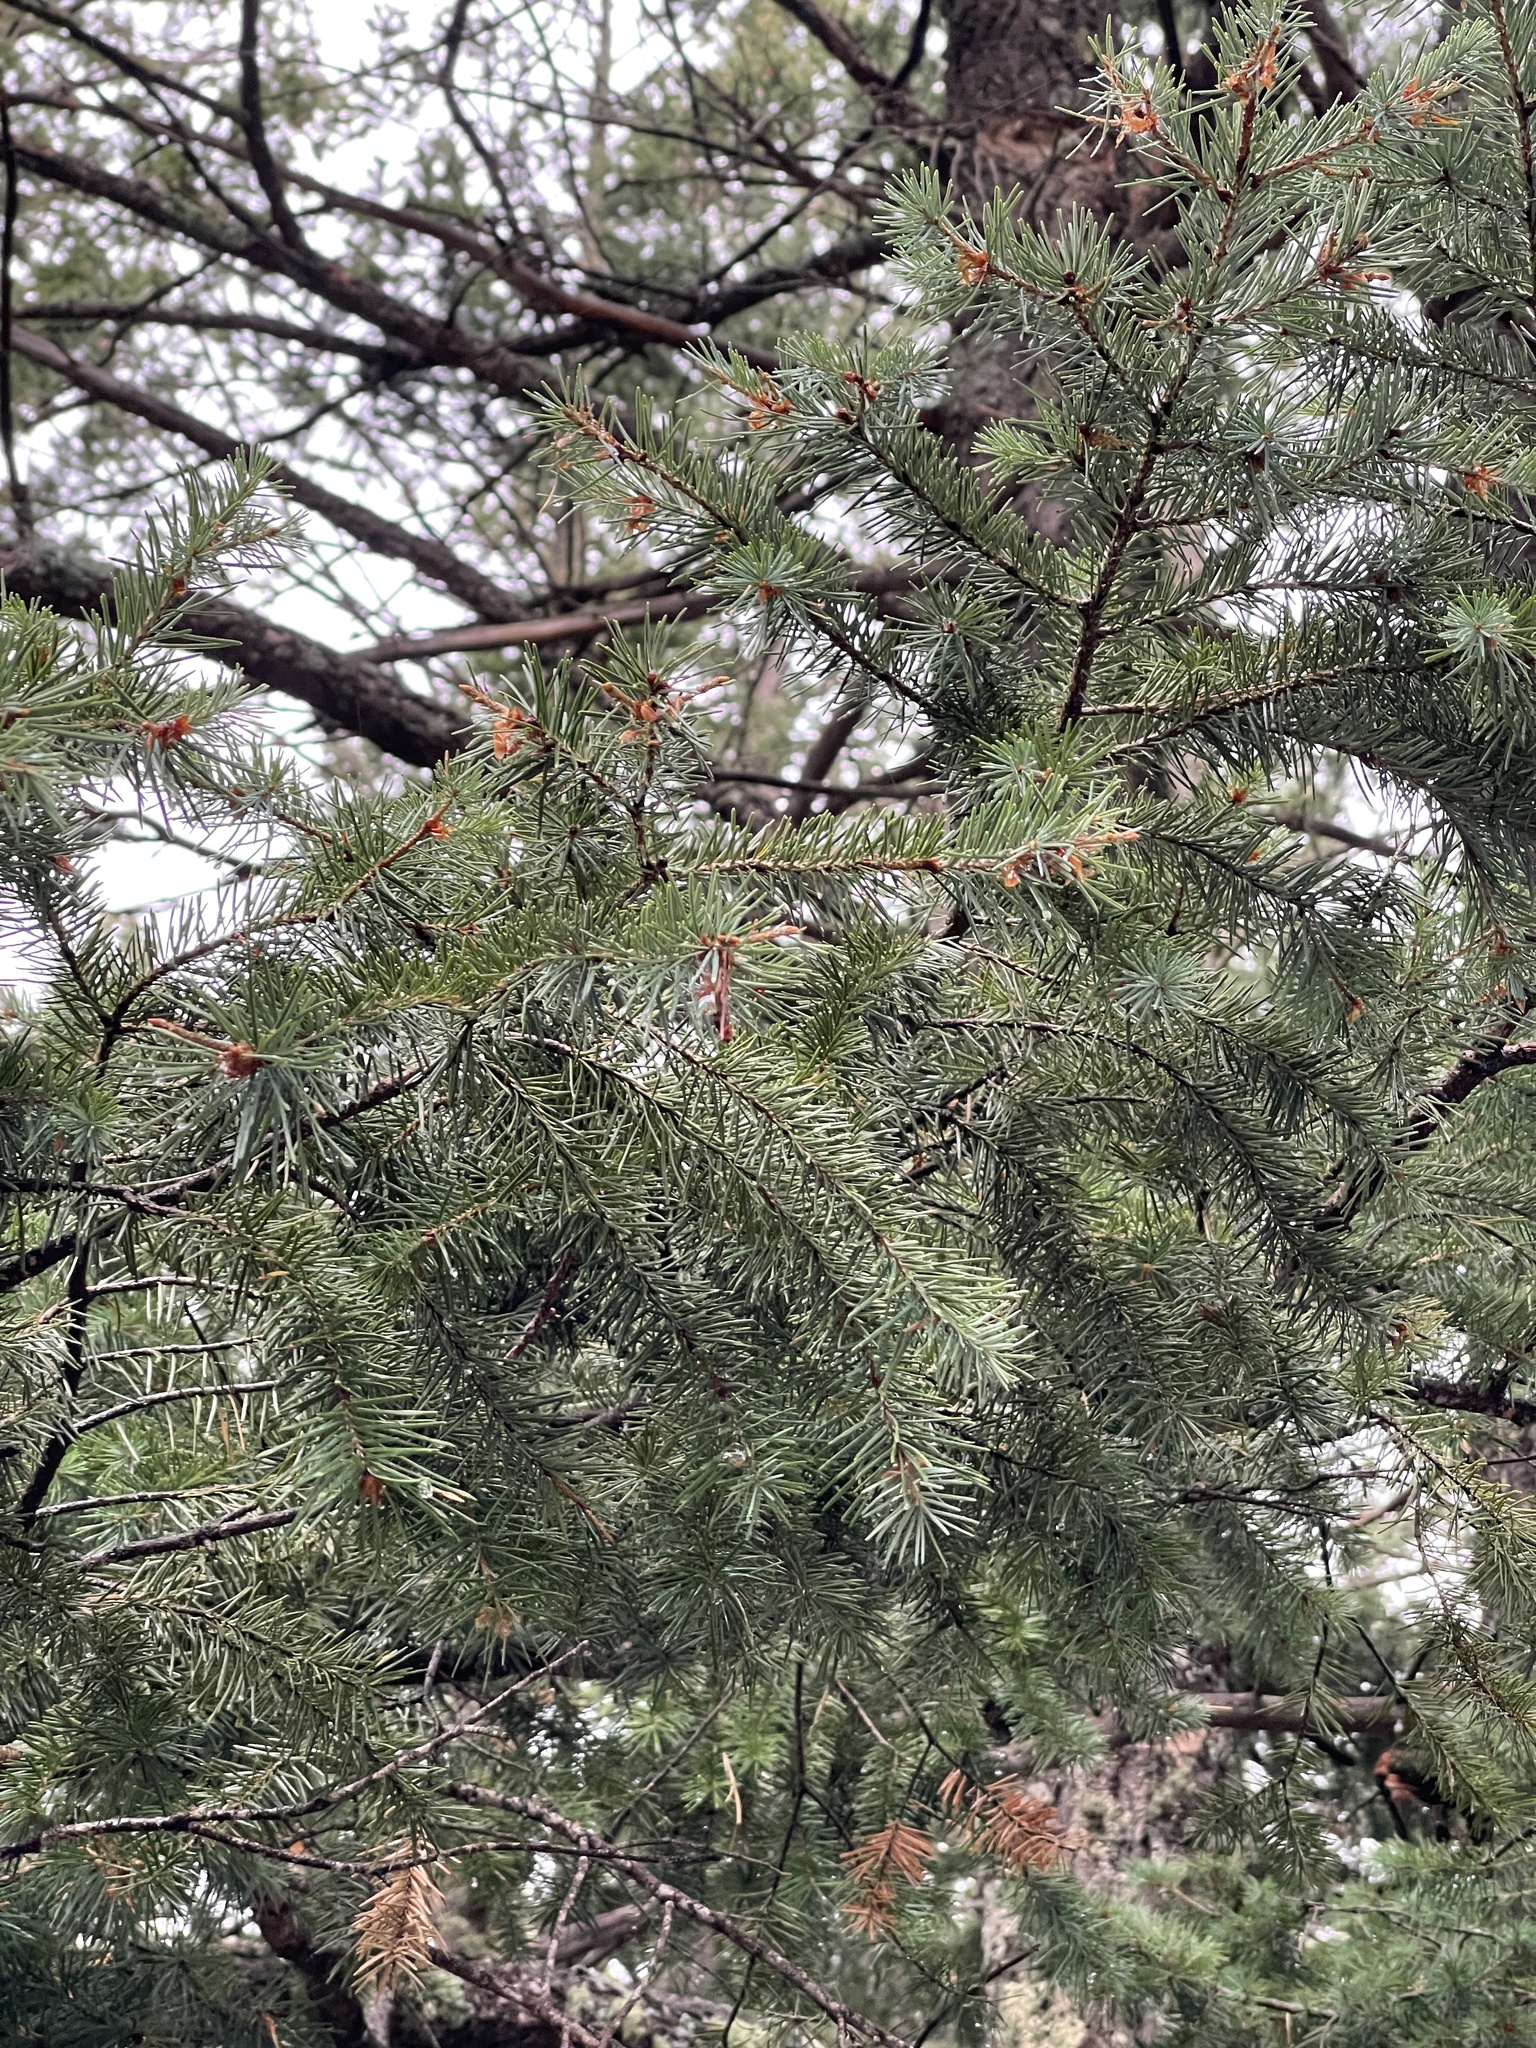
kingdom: Plantae
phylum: Tracheophyta
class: Pinopsida
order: Pinales
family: Pinaceae
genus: Pseudotsuga
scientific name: Pseudotsuga menziesii
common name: Douglas fir
